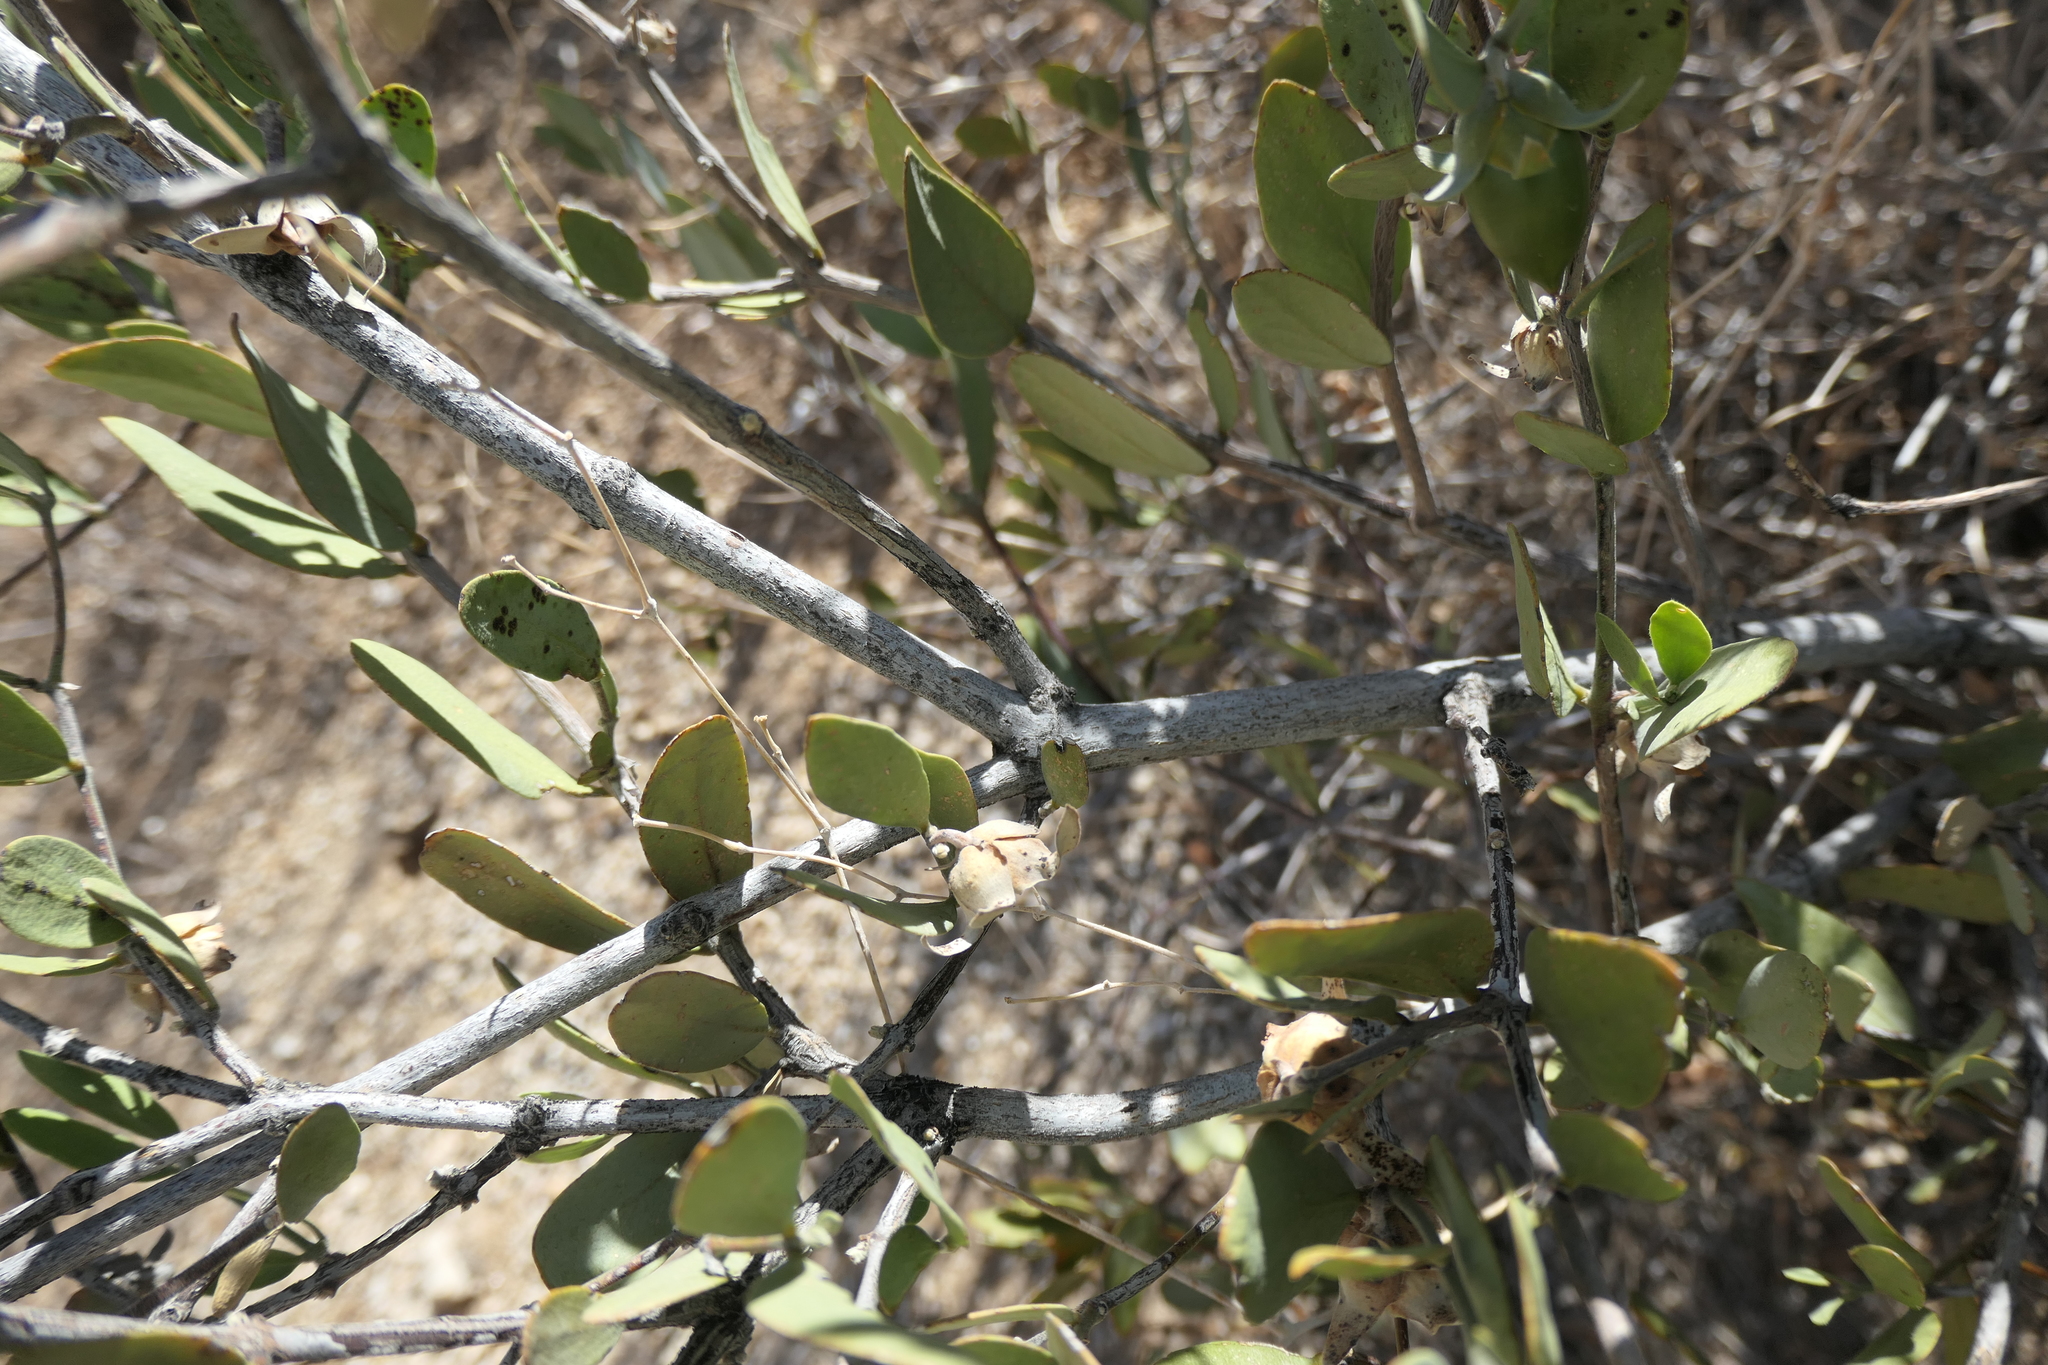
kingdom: Plantae
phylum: Tracheophyta
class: Magnoliopsida
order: Caryophyllales
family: Simmondsiaceae
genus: Simmondsia
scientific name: Simmondsia chinensis
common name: Jojoba
